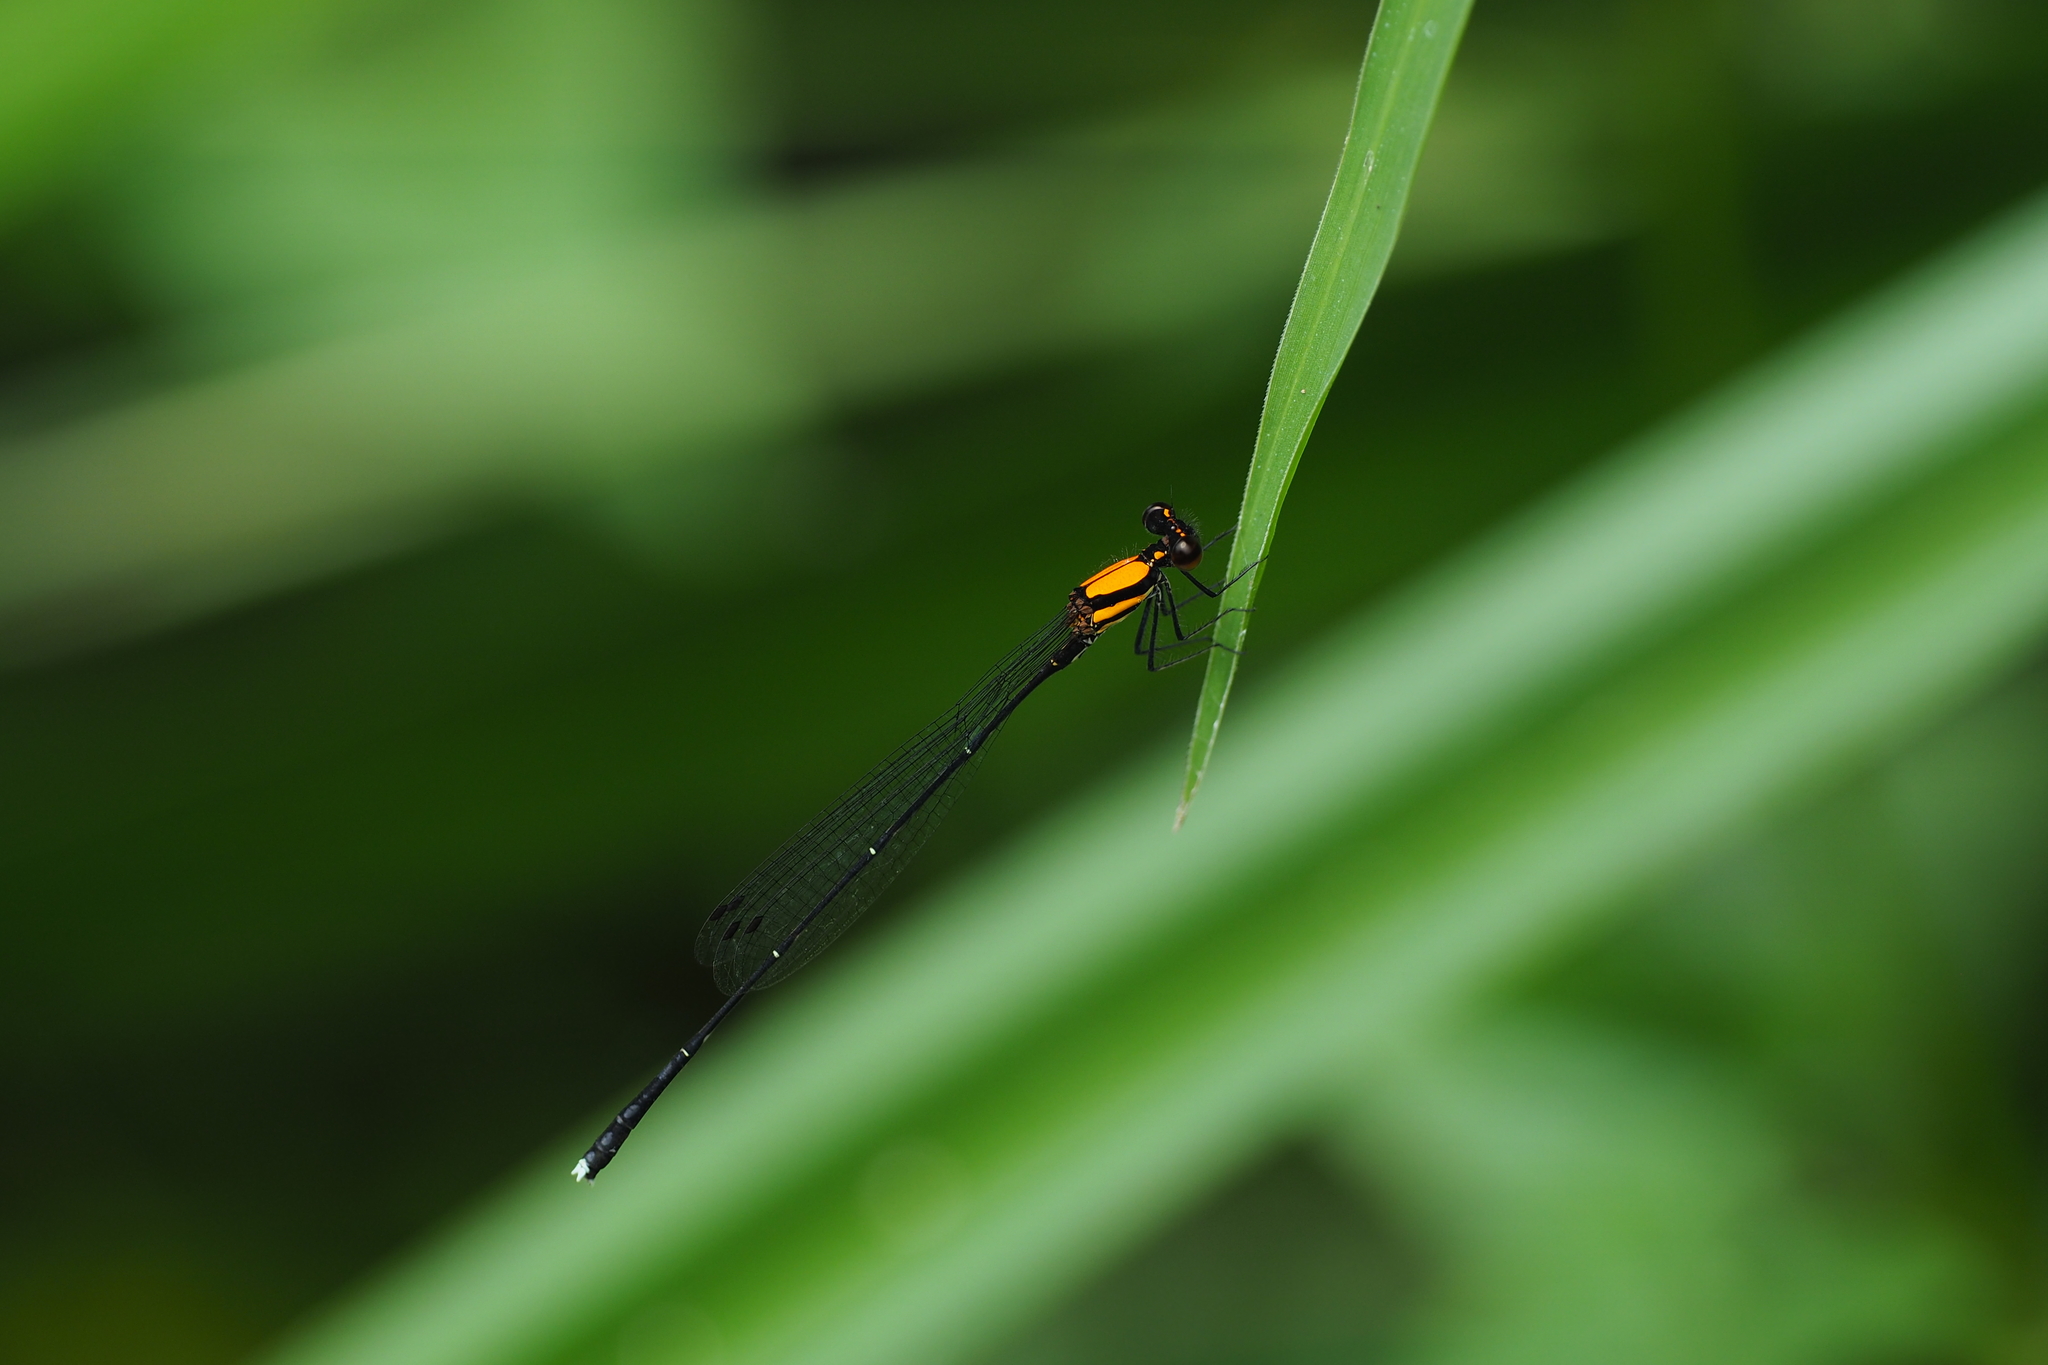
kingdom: Animalia
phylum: Arthropoda
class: Insecta
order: Odonata
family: Platycnemididae
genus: Prodasineura
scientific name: Prodasineura croconota
